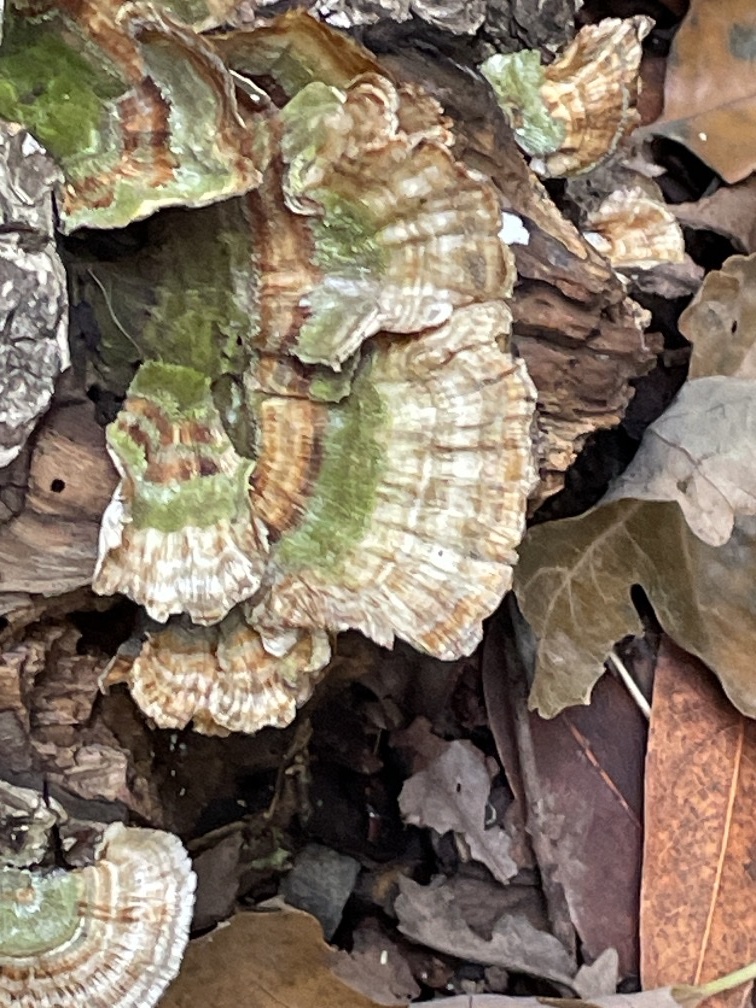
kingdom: Fungi
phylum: Basidiomycota
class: Agaricomycetes
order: Polyporales
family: Polyporaceae
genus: Trametes
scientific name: Trametes versicolor
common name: Turkeytail
